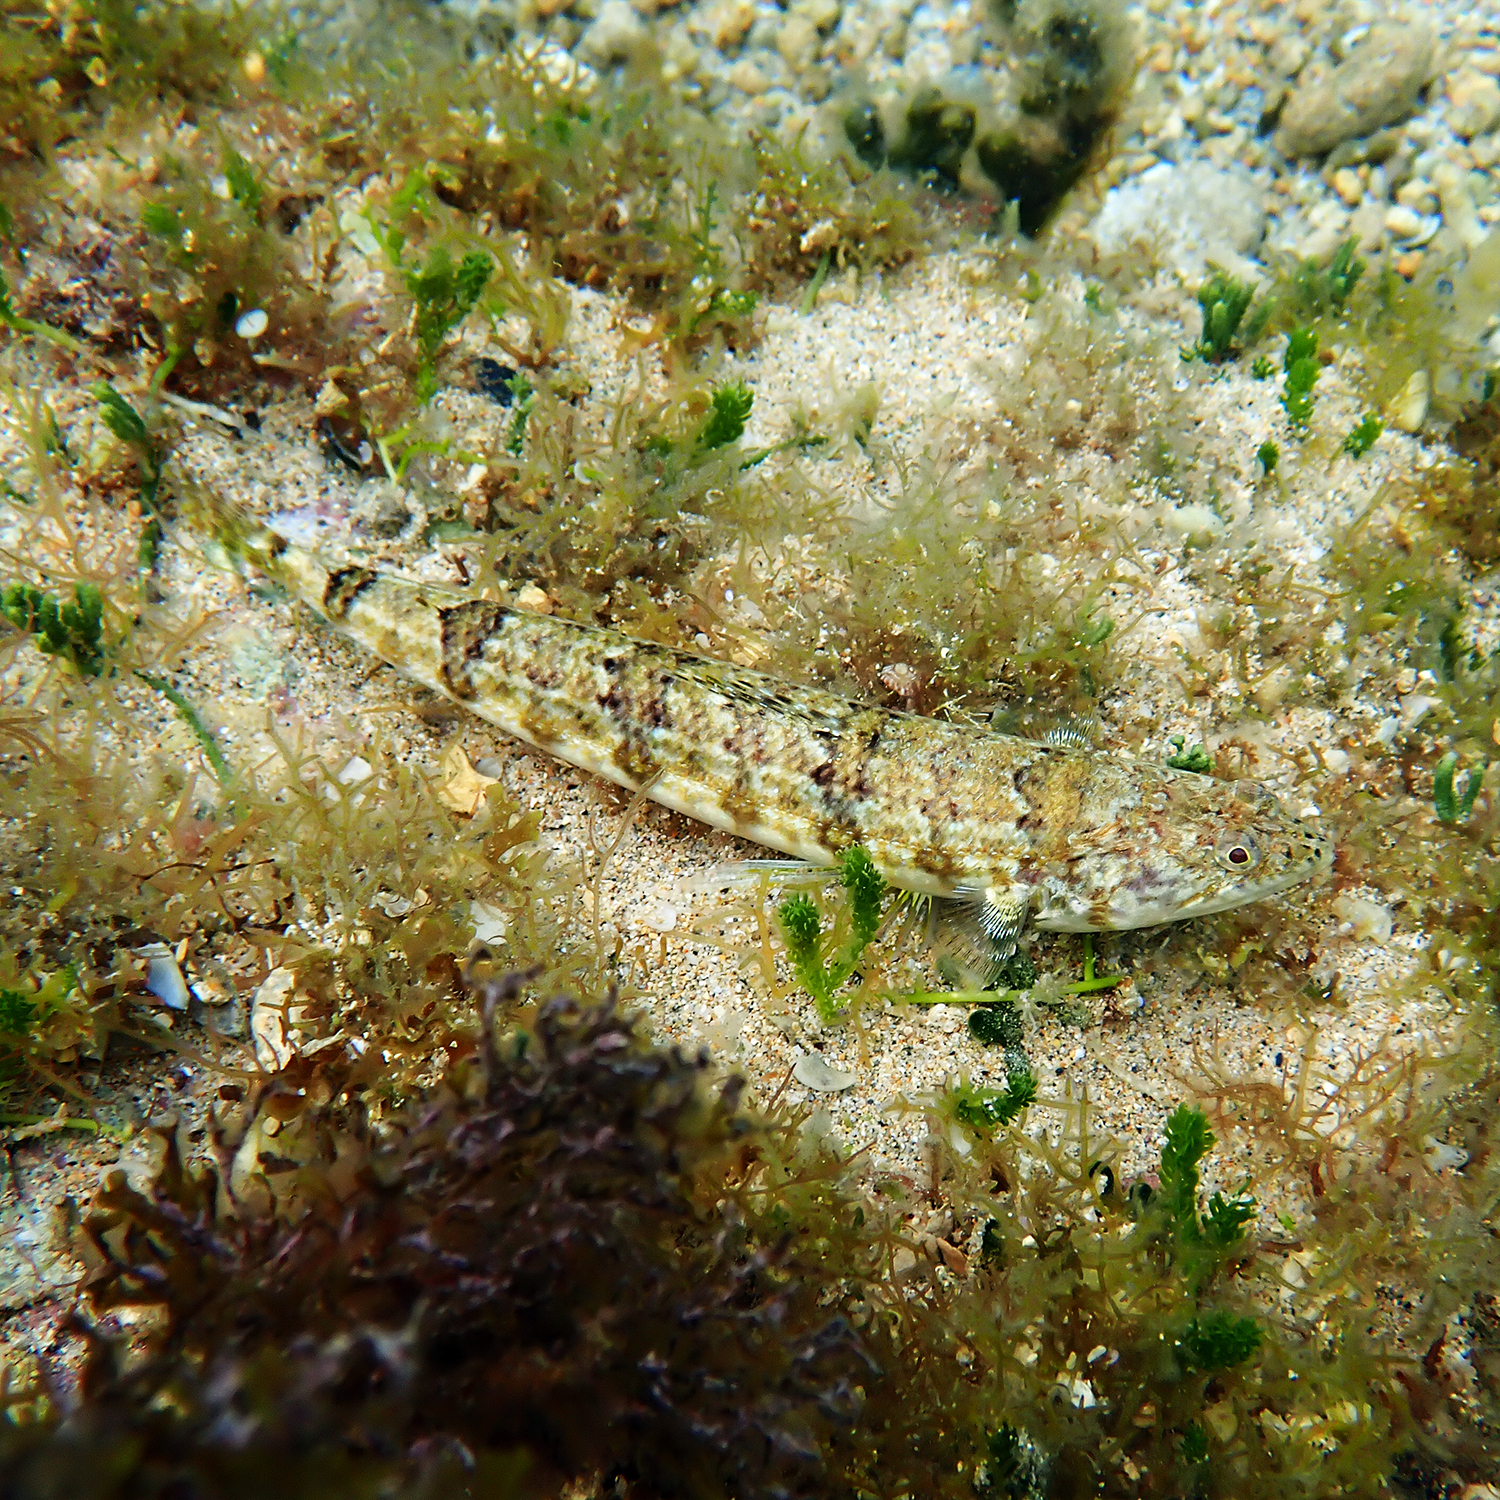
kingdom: Animalia
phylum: Chordata
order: Aulopiformes
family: Synodontidae
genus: Synodus
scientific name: Synodus dermatogenys
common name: Banded lizardfish
